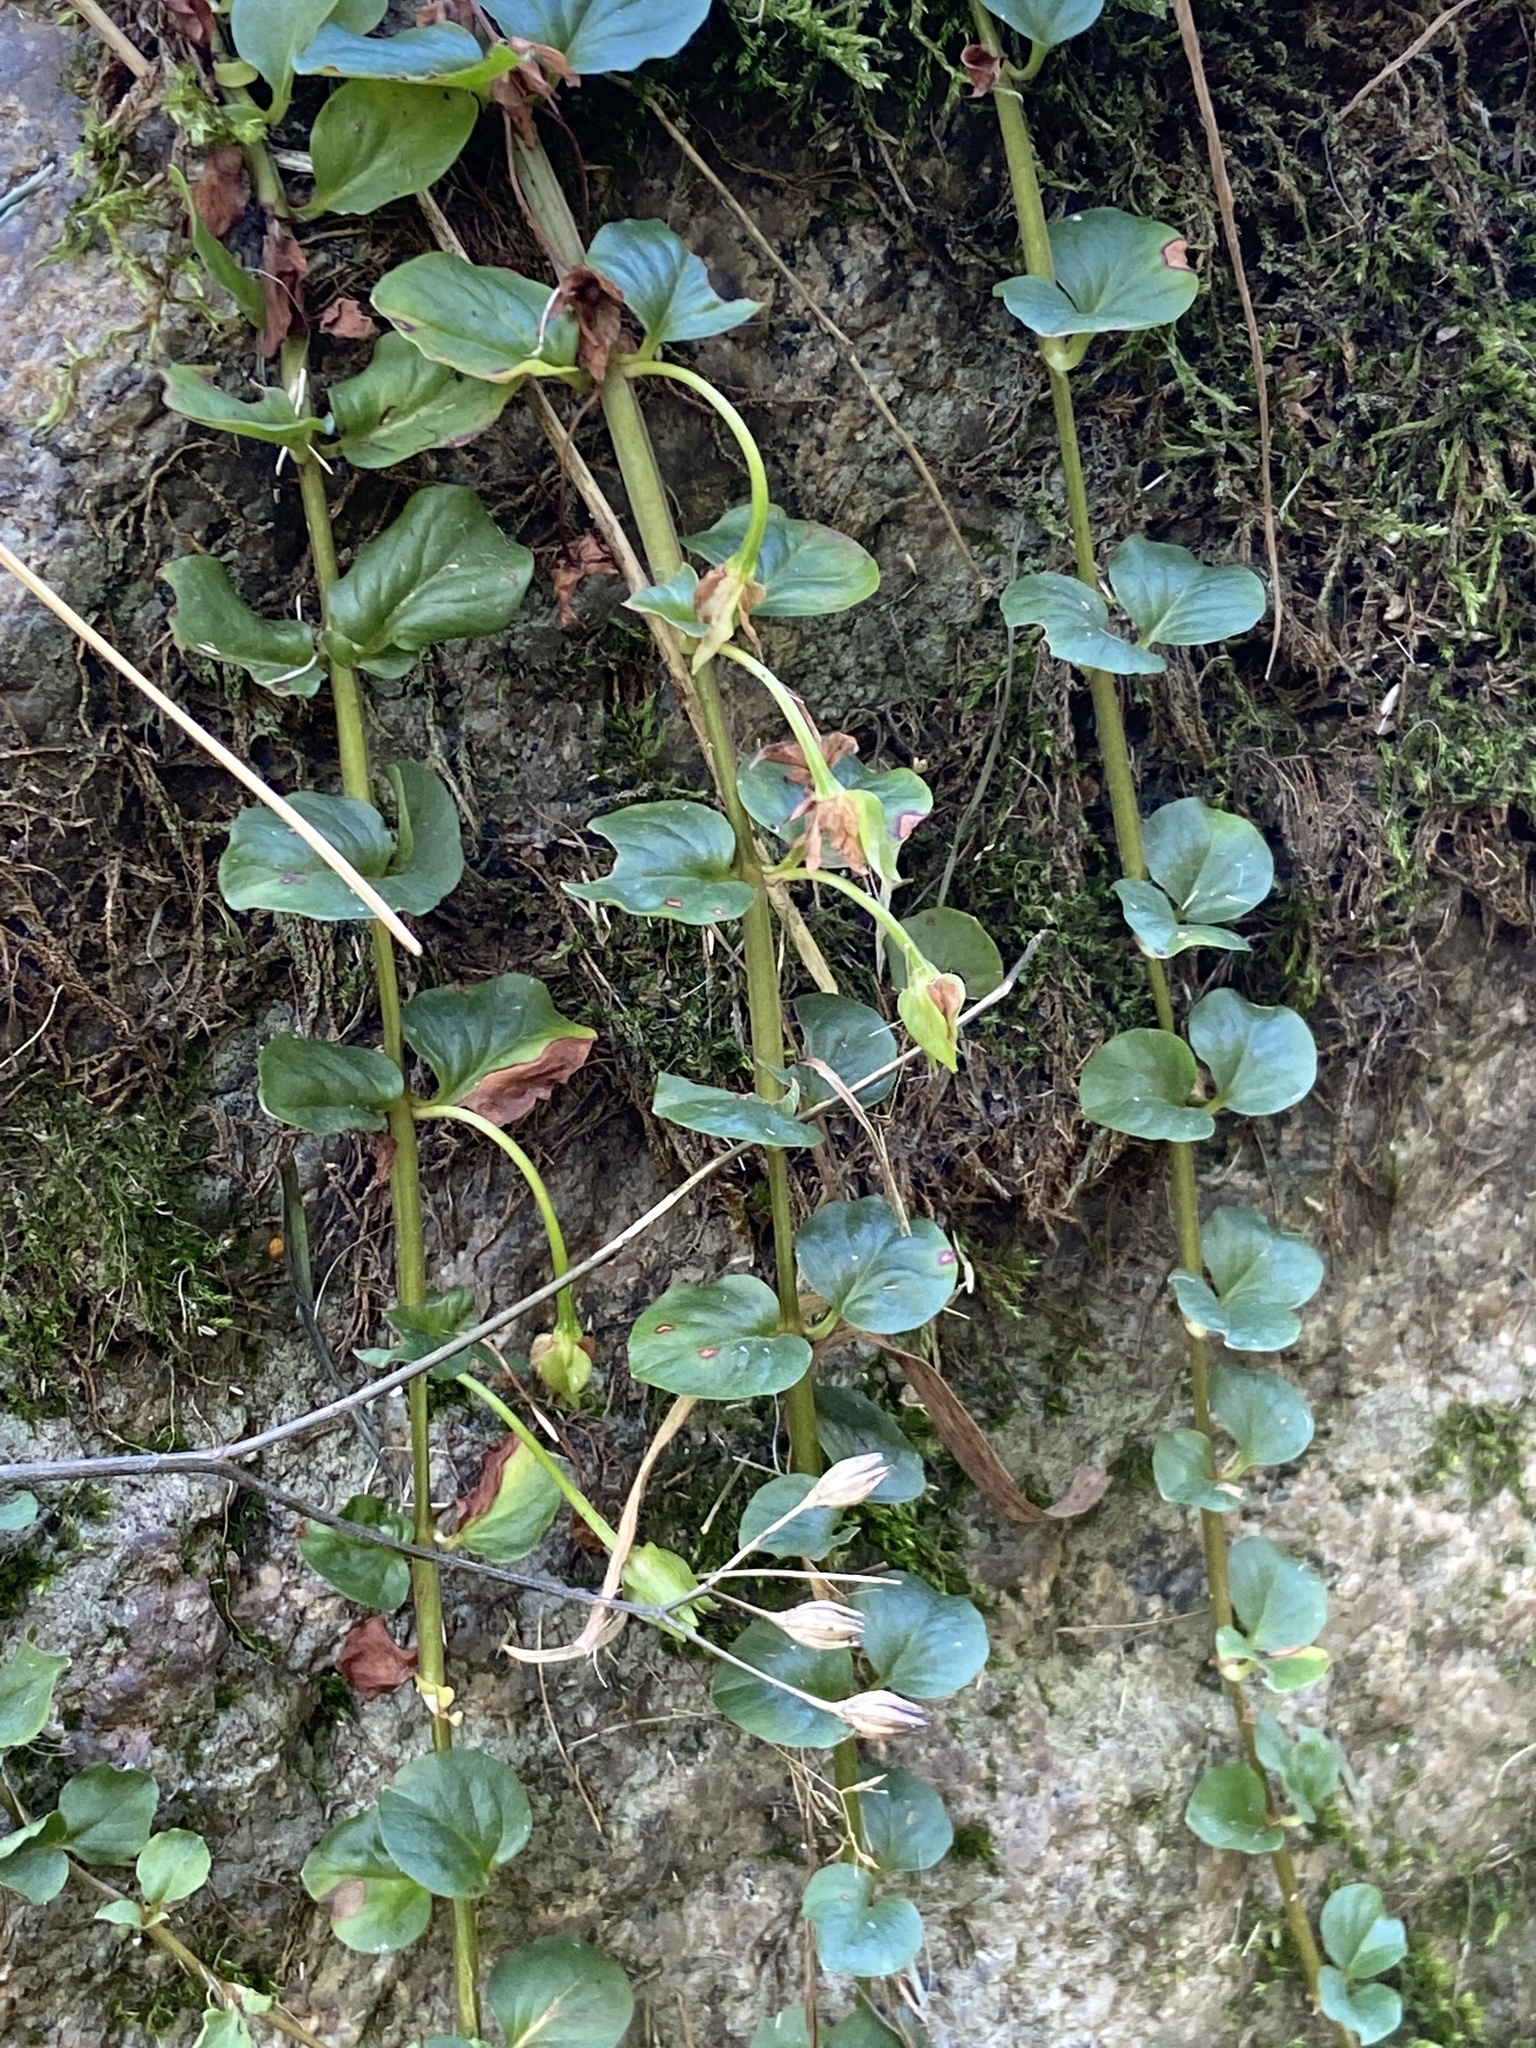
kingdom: Plantae
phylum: Tracheophyta
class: Magnoliopsida
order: Ericales
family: Primulaceae
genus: Lysimachia
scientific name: Lysimachia nummularia
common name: Moneywort
